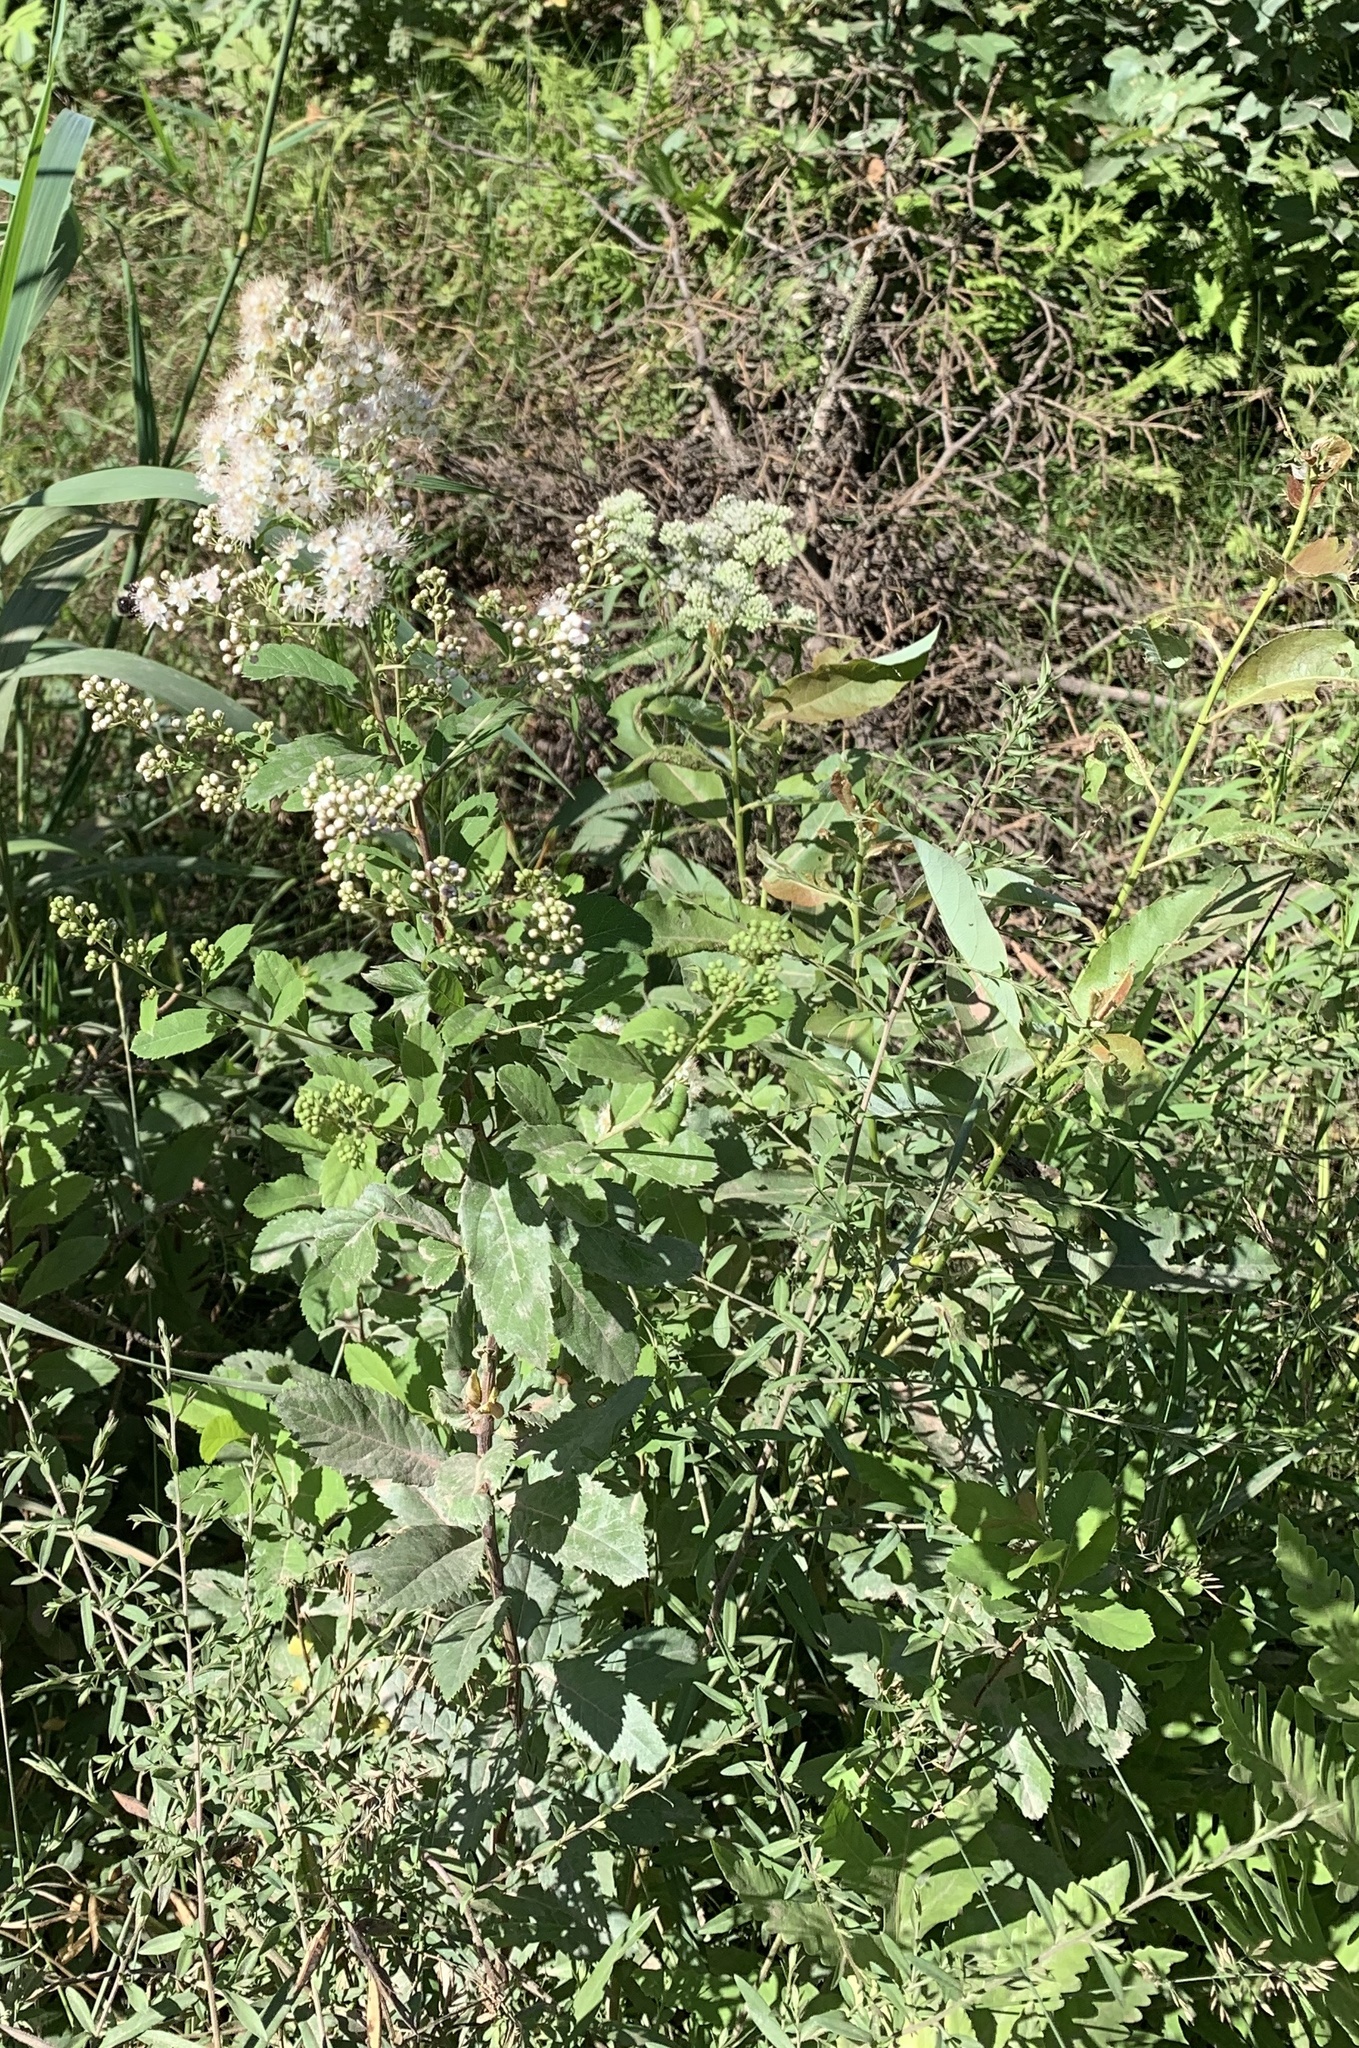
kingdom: Plantae
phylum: Tracheophyta
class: Magnoliopsida
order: Rosales
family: Rosaceae
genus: Spiraea
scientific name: Spiraea alba
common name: Pale bridewort
